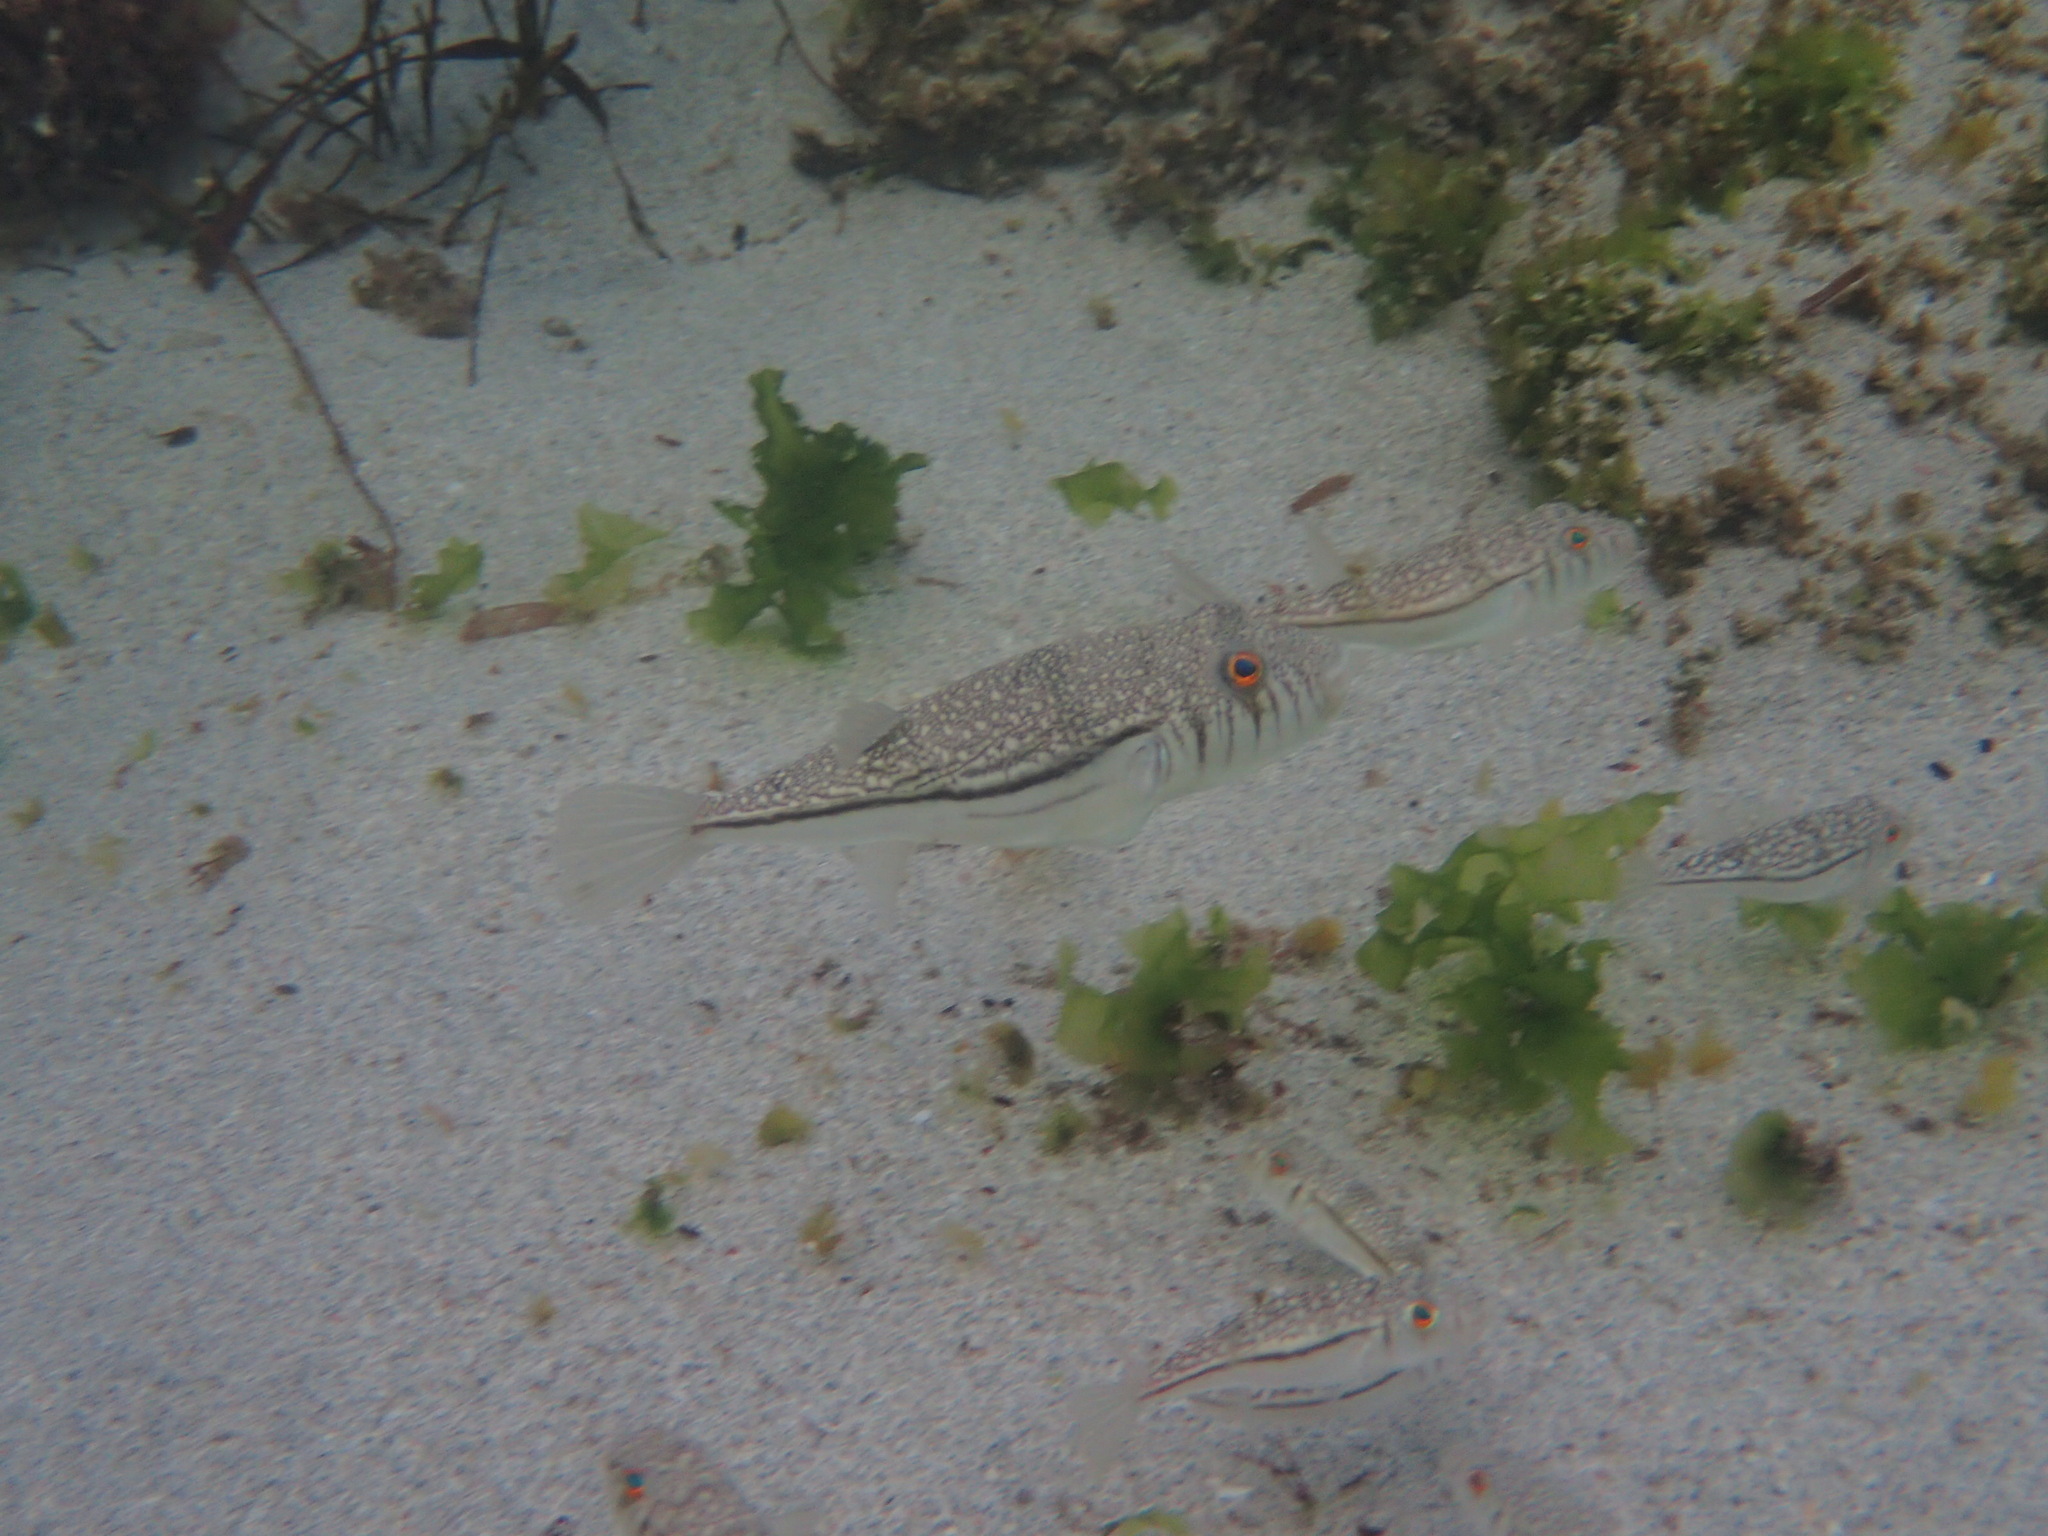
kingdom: Animalia
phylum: Chordata
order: Tetraodontiformes
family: Tetraodontidae
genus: Torquigener
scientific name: Torquigener pleurogramma
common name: Banded toadfish
